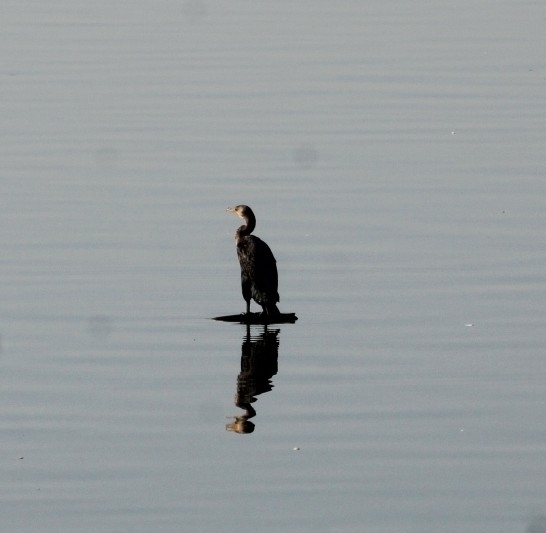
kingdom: Animalia
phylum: Chordata
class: Aves
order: Suliformes
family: Phalacrocoracidae
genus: Phalacrocorax
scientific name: Phalacrocorax auritus
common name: Double-crested cormorant
